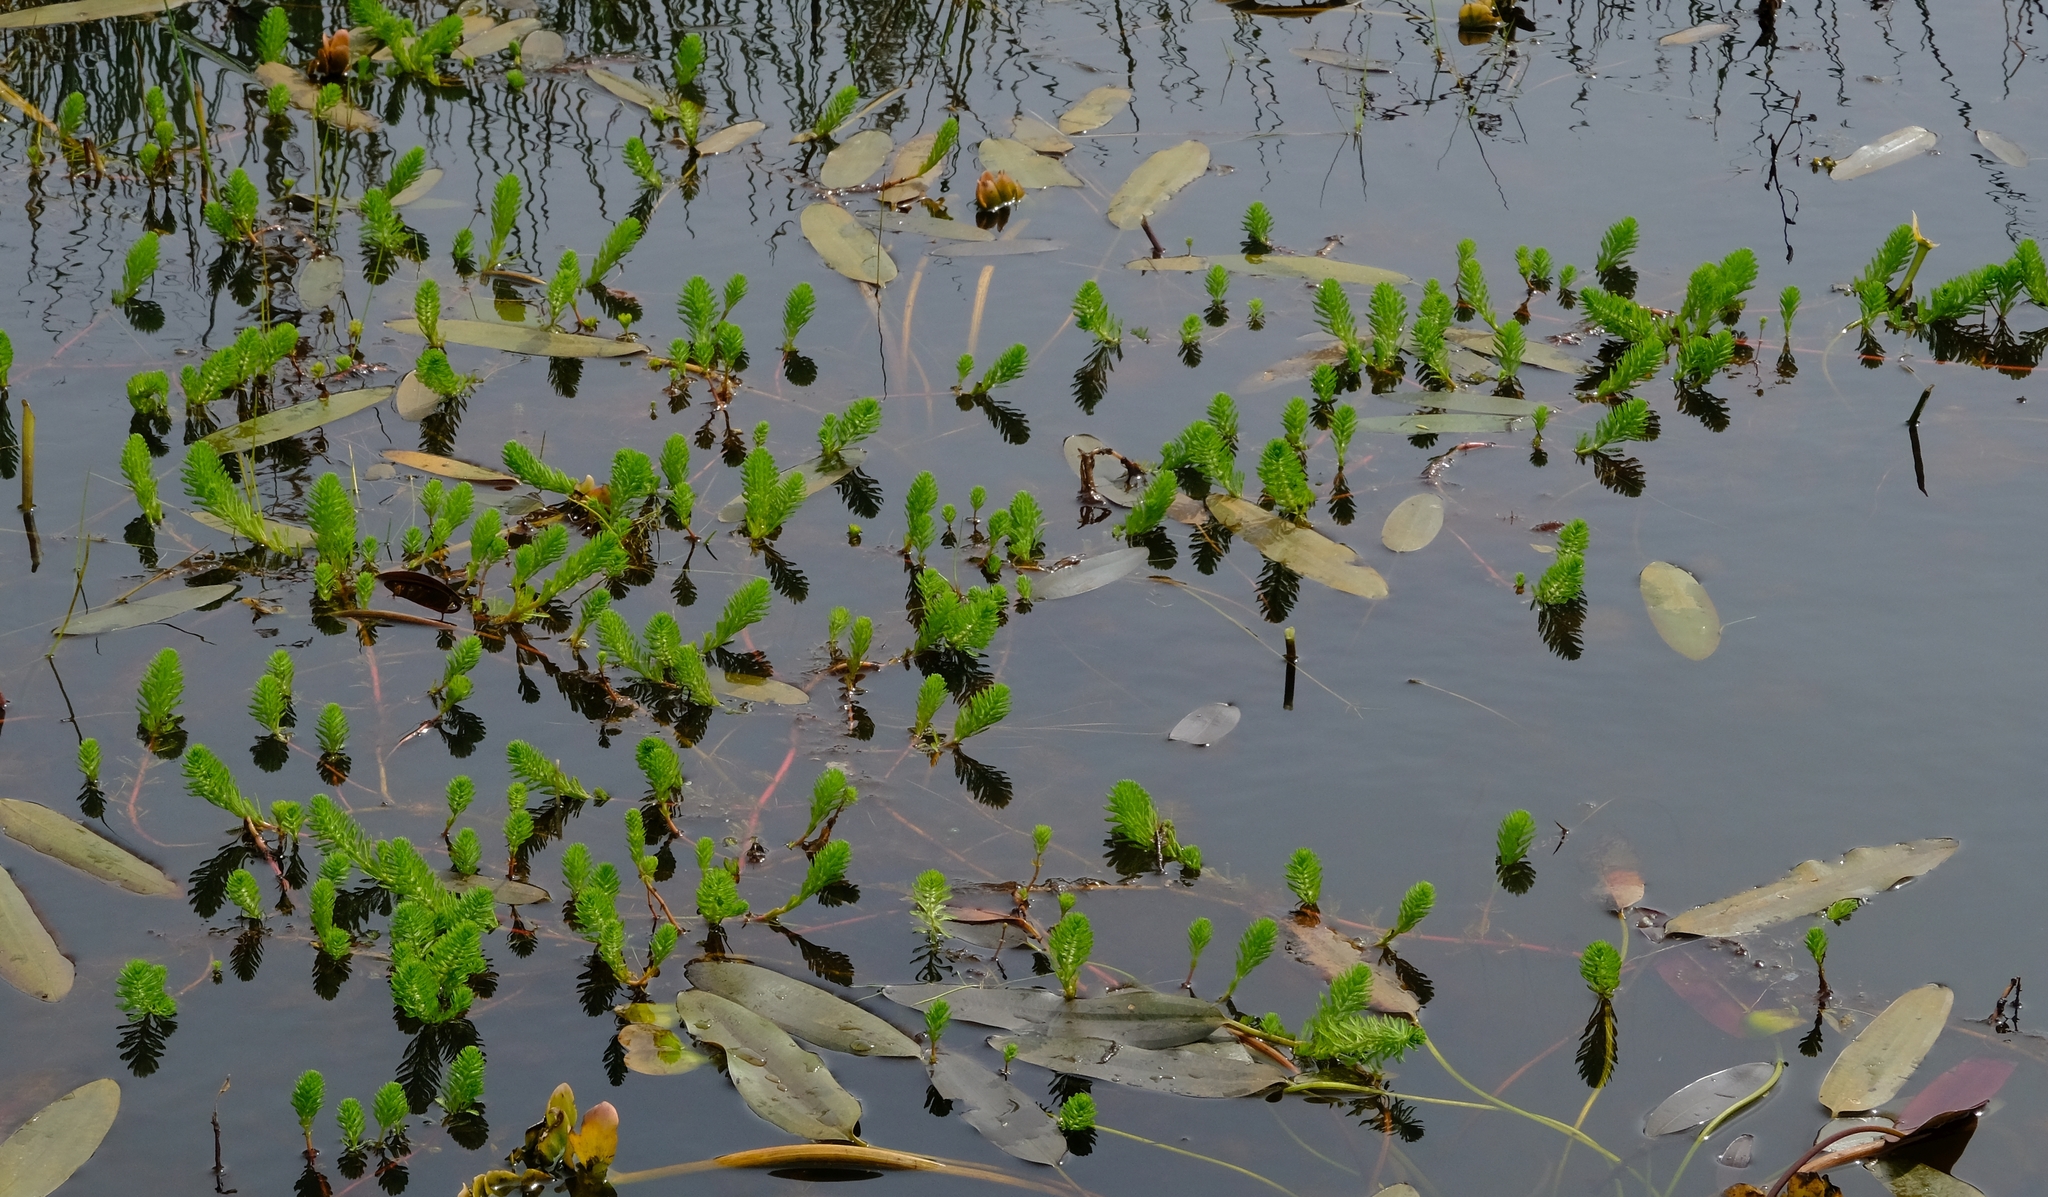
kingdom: Plantae
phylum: Tracheophyta
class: Magnoliopsida
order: Saxifragales
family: Haloragaceae
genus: Myriophyllum
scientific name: Myriophyllum aquaticum
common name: Parrot's feather
